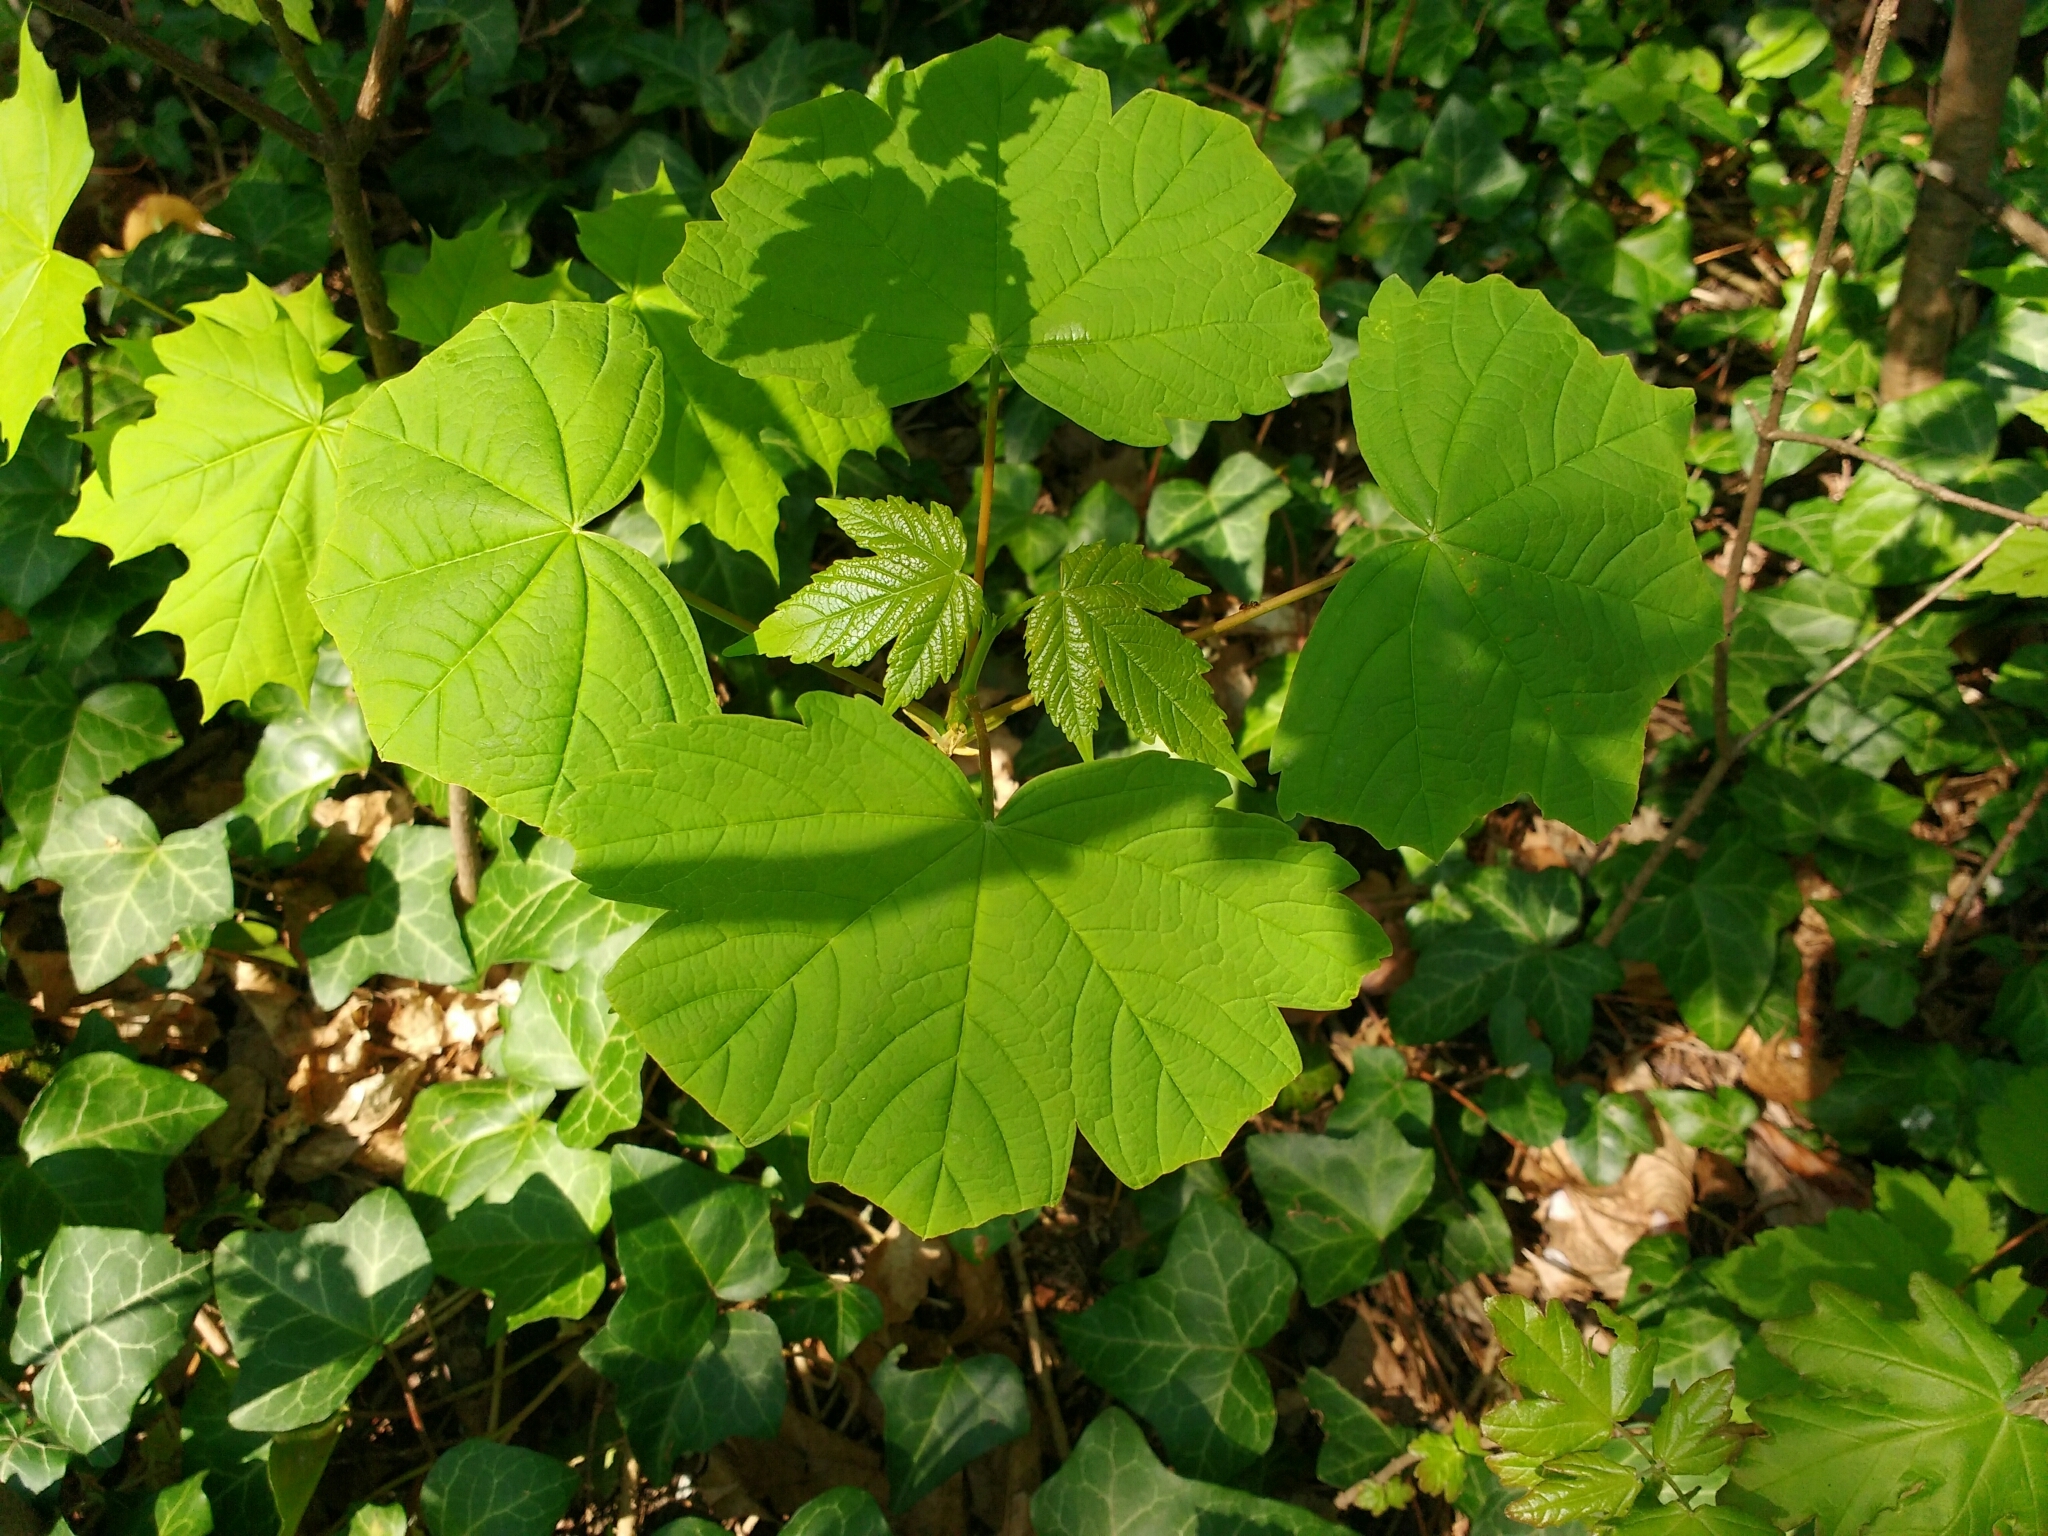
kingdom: Plantae
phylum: Tracheophyta
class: Magnoliopsida
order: Sapindales
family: Sapindaceae
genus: Acer
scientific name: Acer pseudoplatanus
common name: Sycamore
